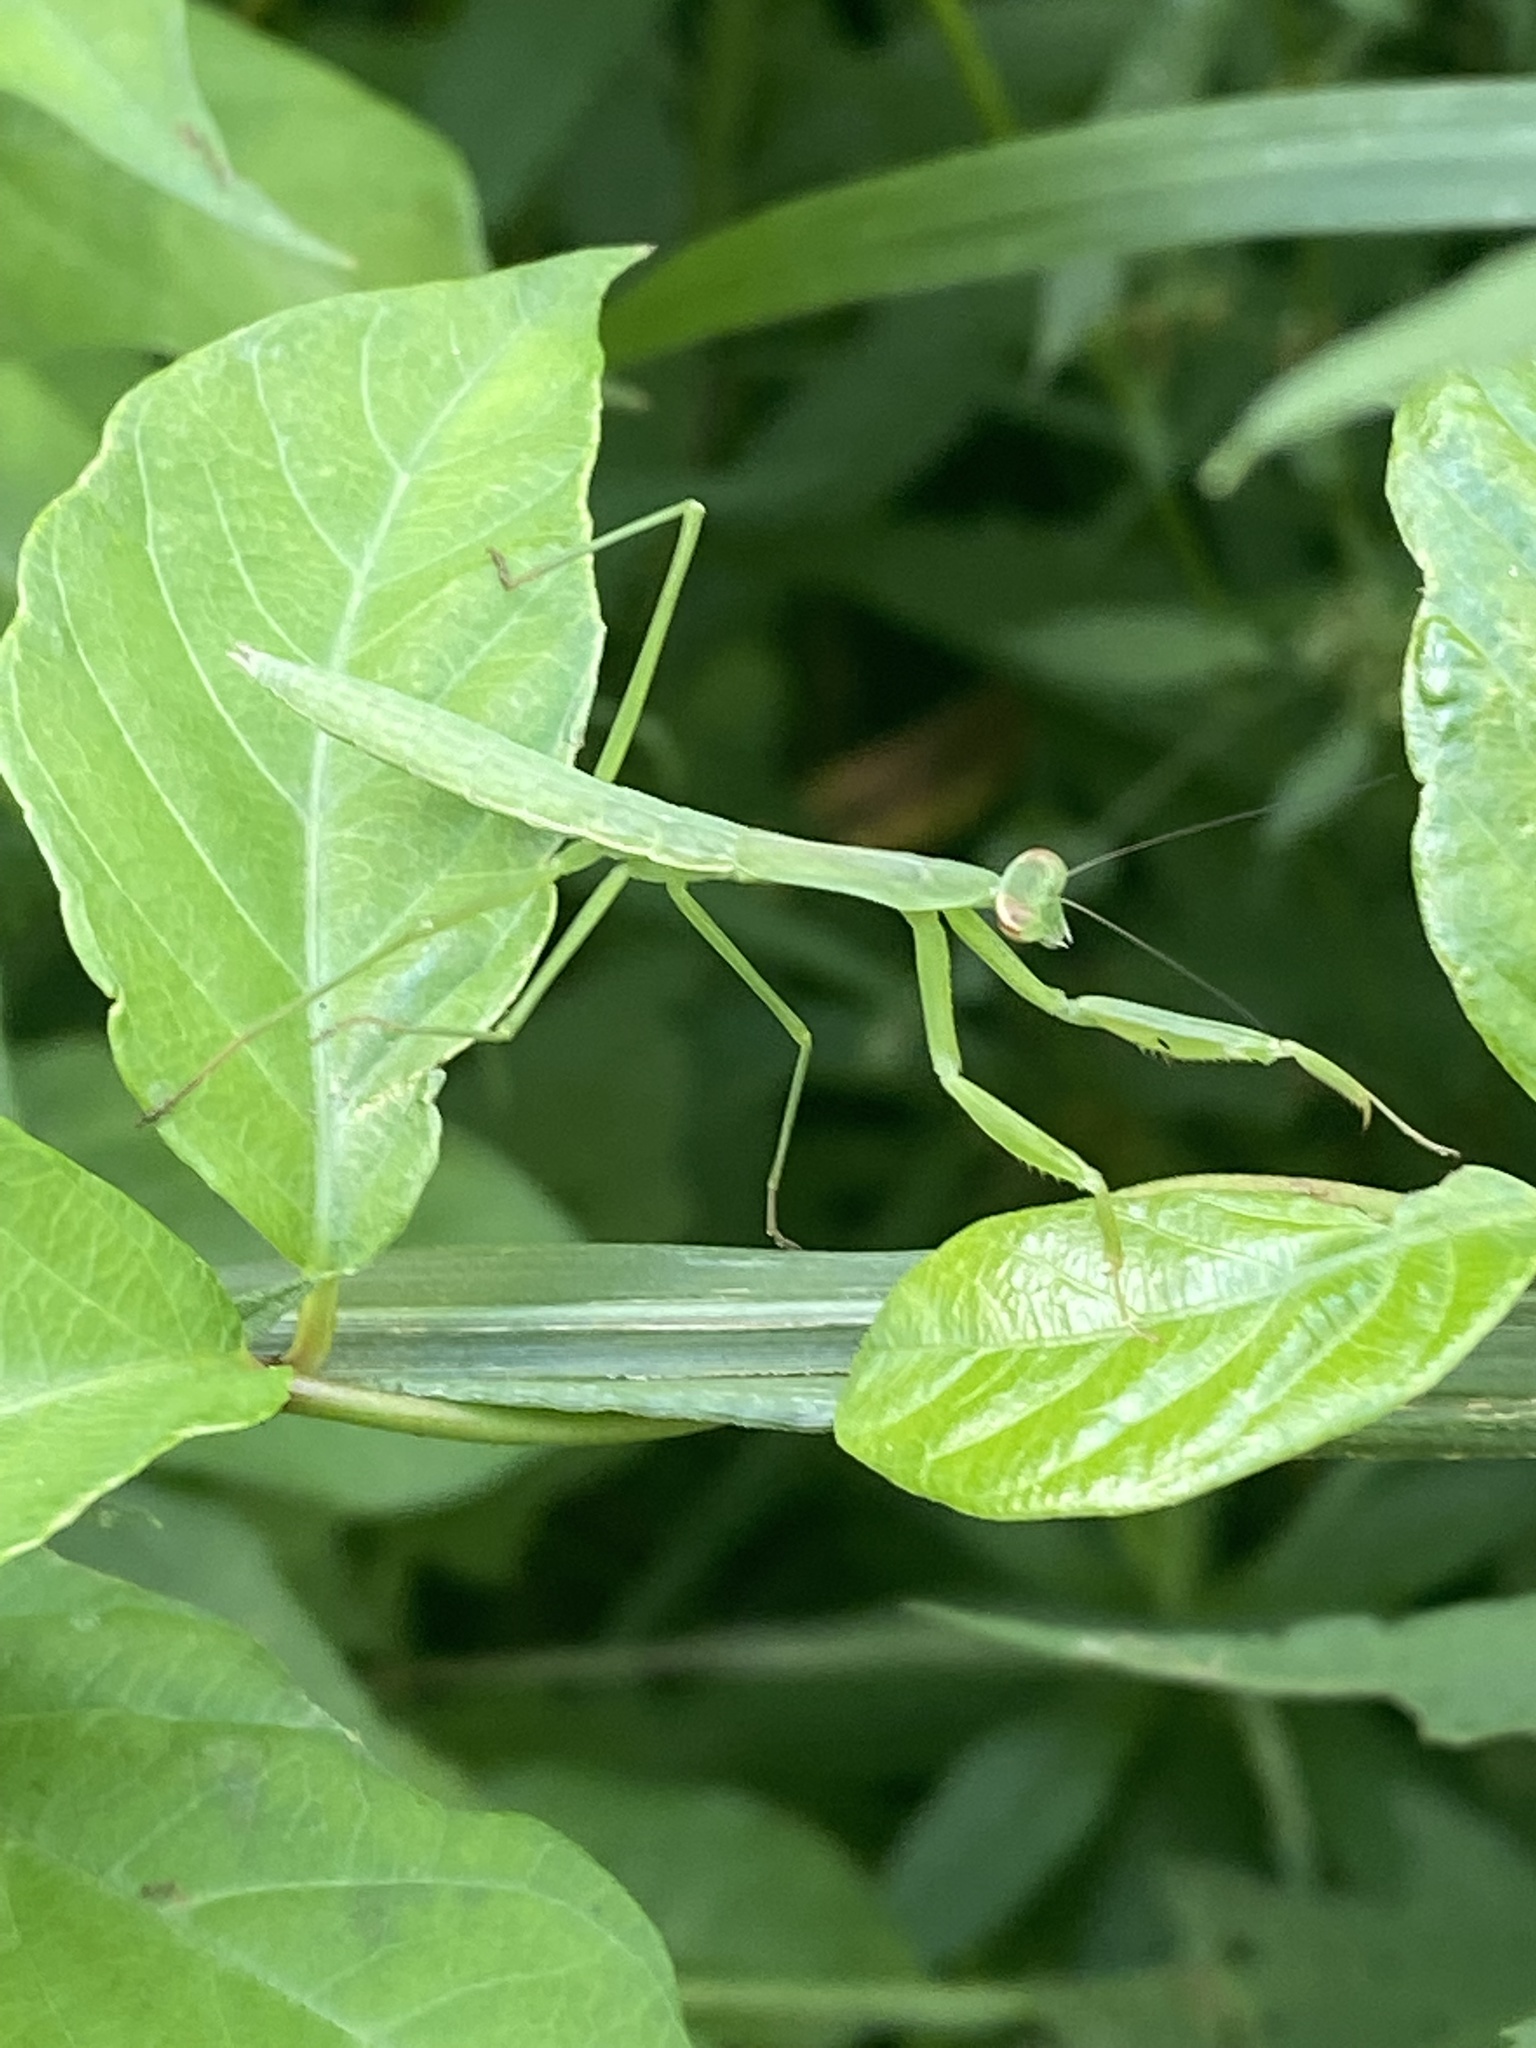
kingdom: Animalia
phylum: Arthropoda
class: Insecta
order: Mantodea
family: Mantidae
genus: Tenodera
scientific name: Tenodera sinensis
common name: Chinese mantis
